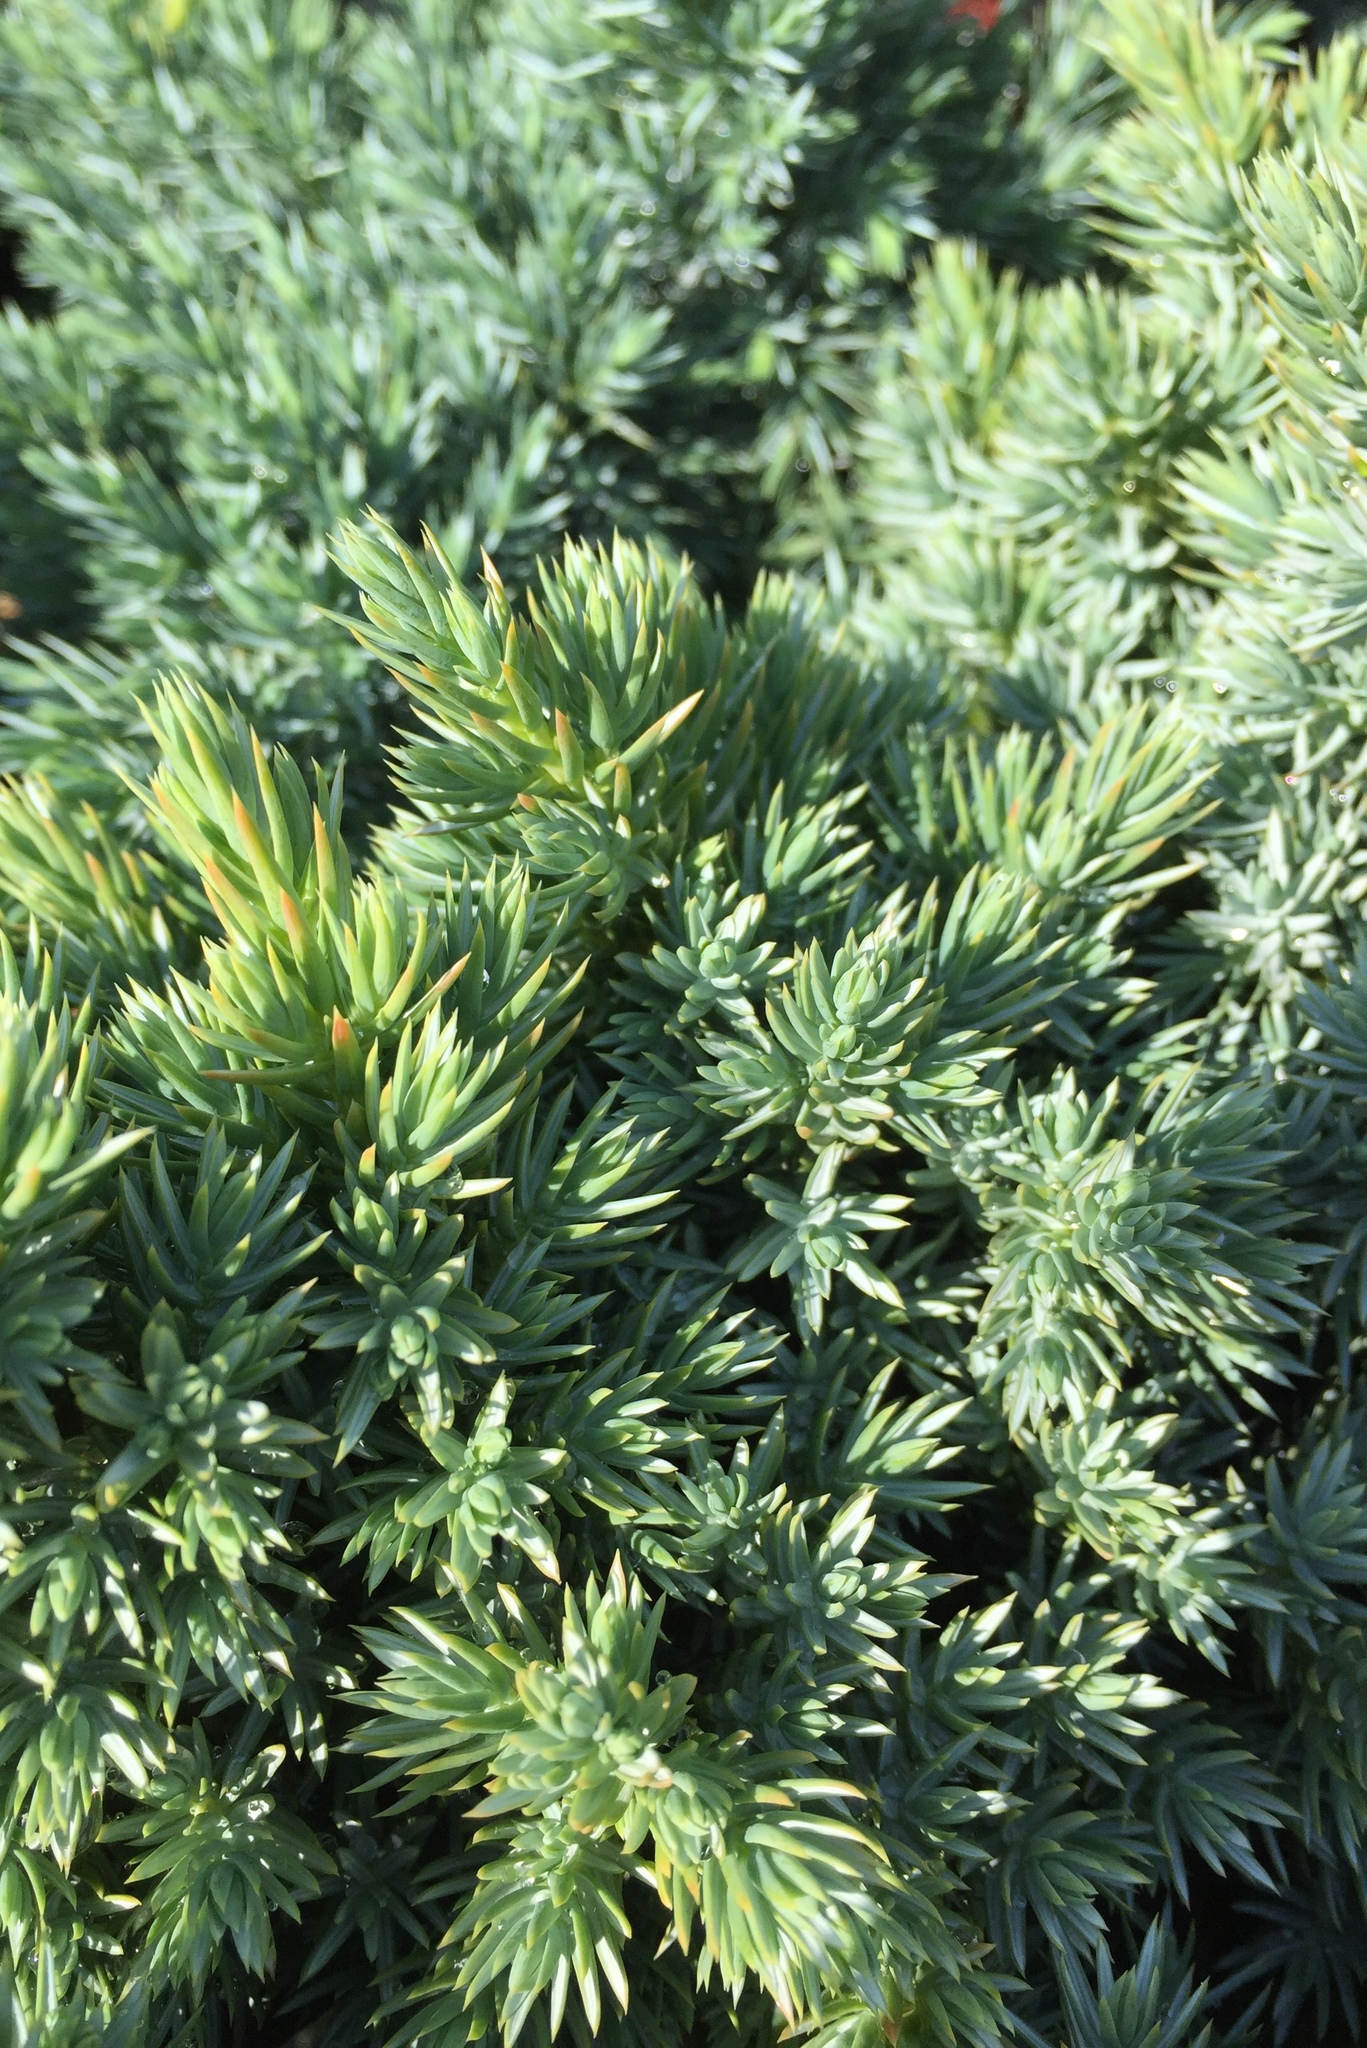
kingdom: Plantae
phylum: Tracheophyta
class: Pinopsida
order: Pinales
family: Cupressaceae
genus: Juniperus
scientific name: Juniperus communis
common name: Common juniper
